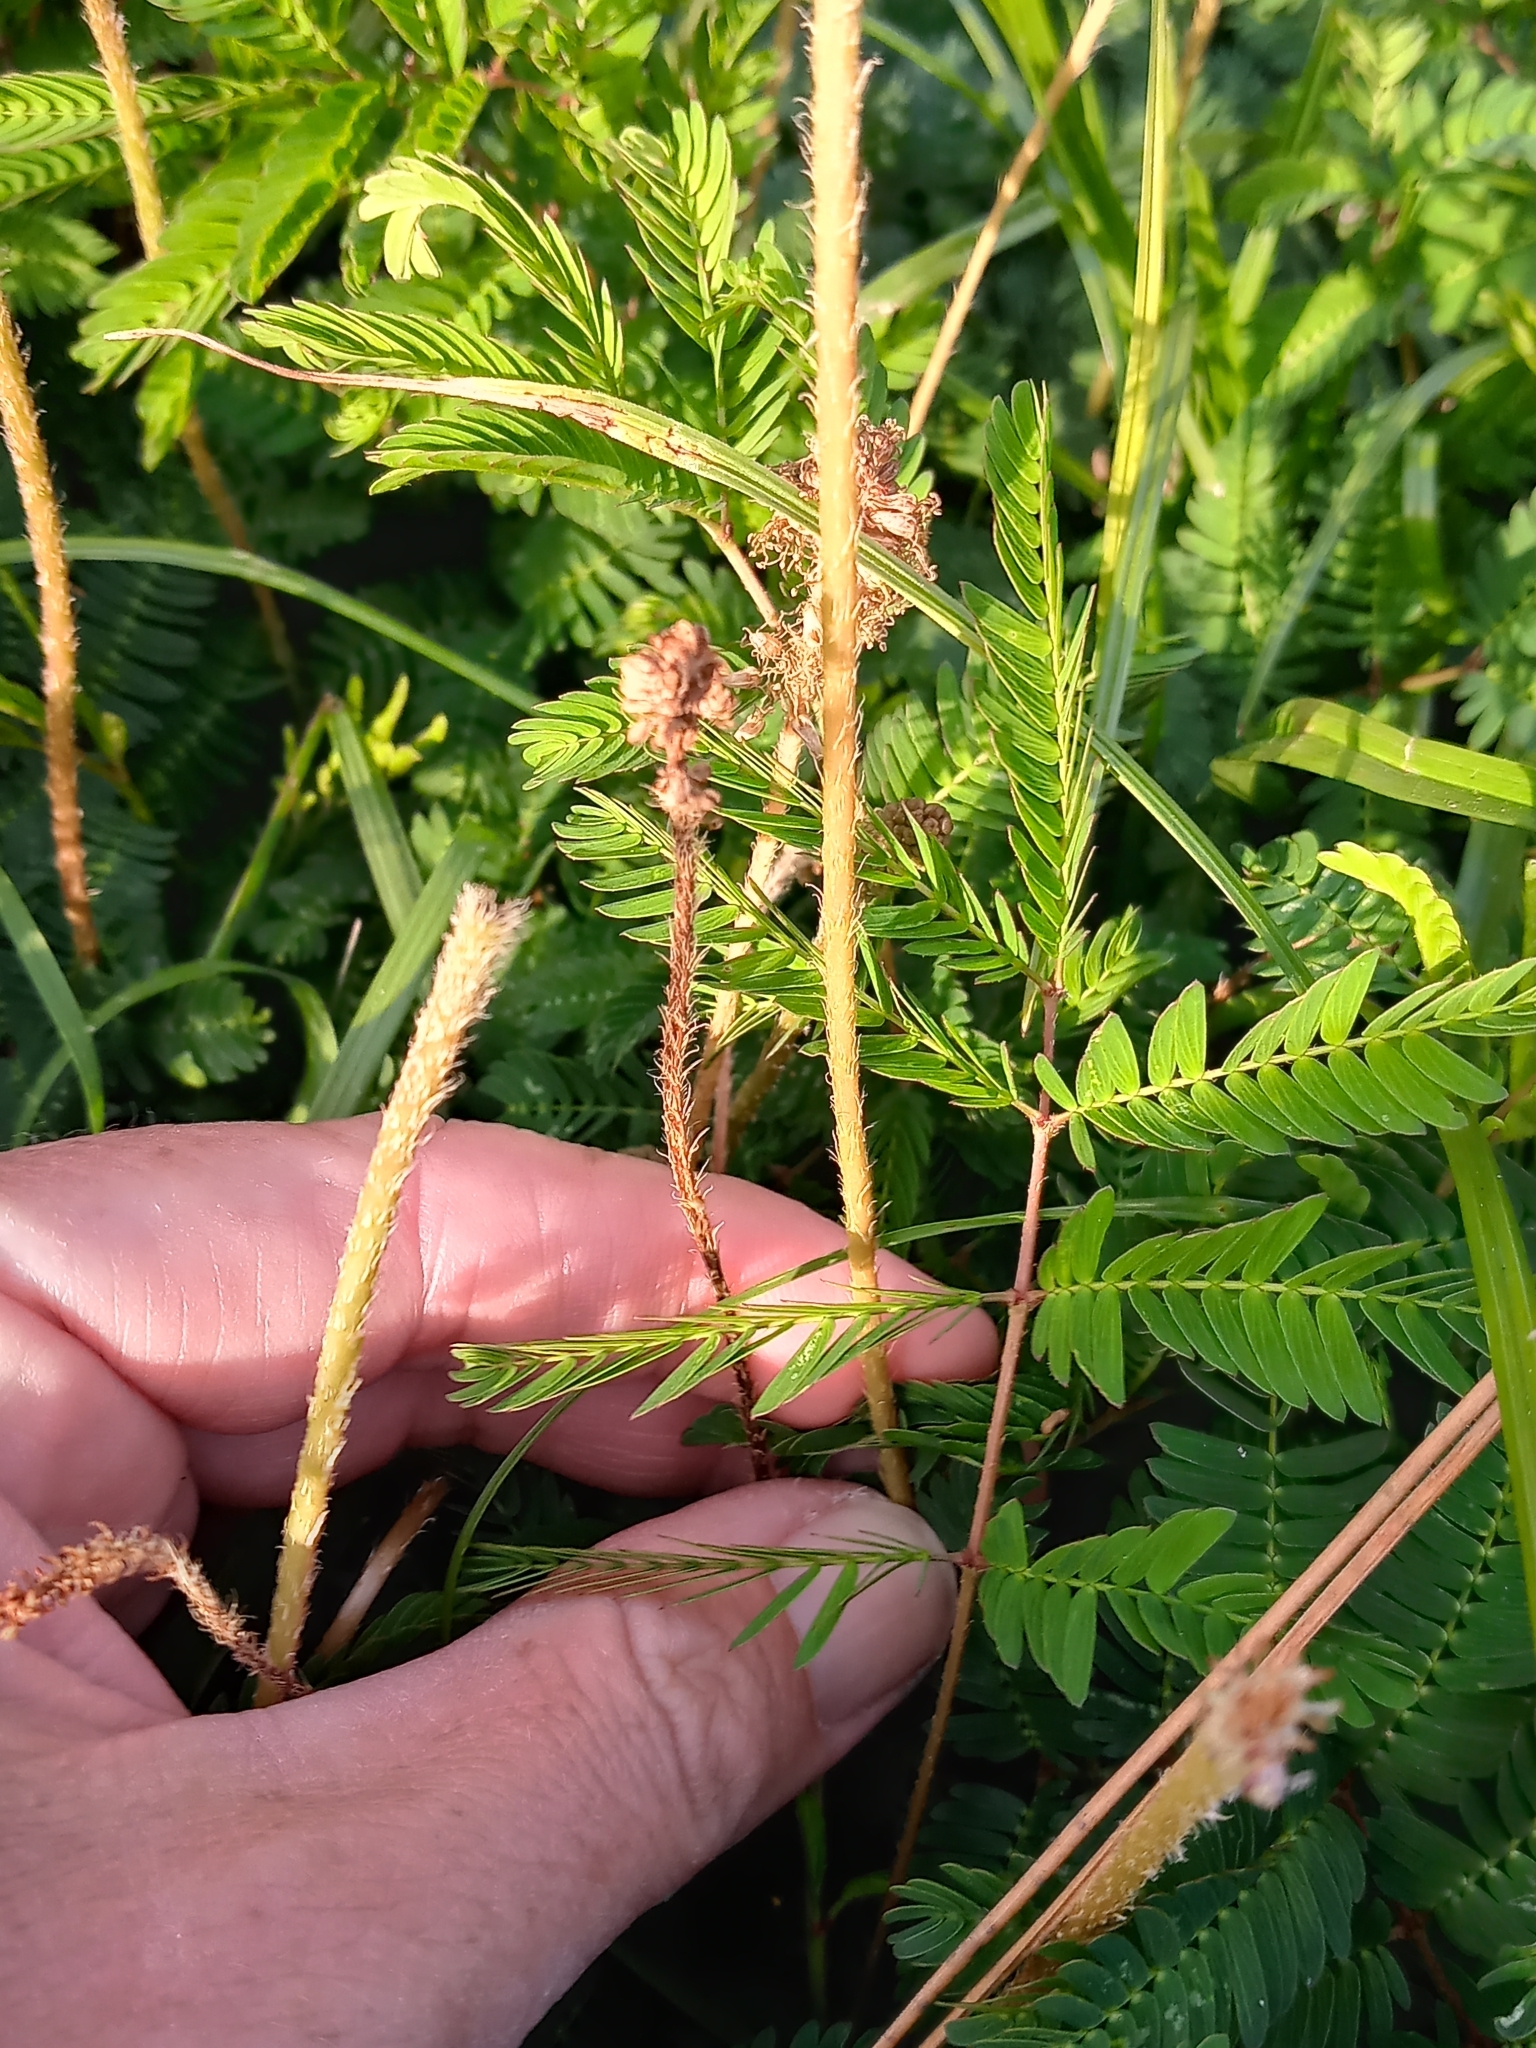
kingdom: Plantae
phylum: Tracheophyta
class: Magnoliopsida
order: Fabales
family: Fabaceae
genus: Mimosa
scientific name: Mimosa strigillosa
